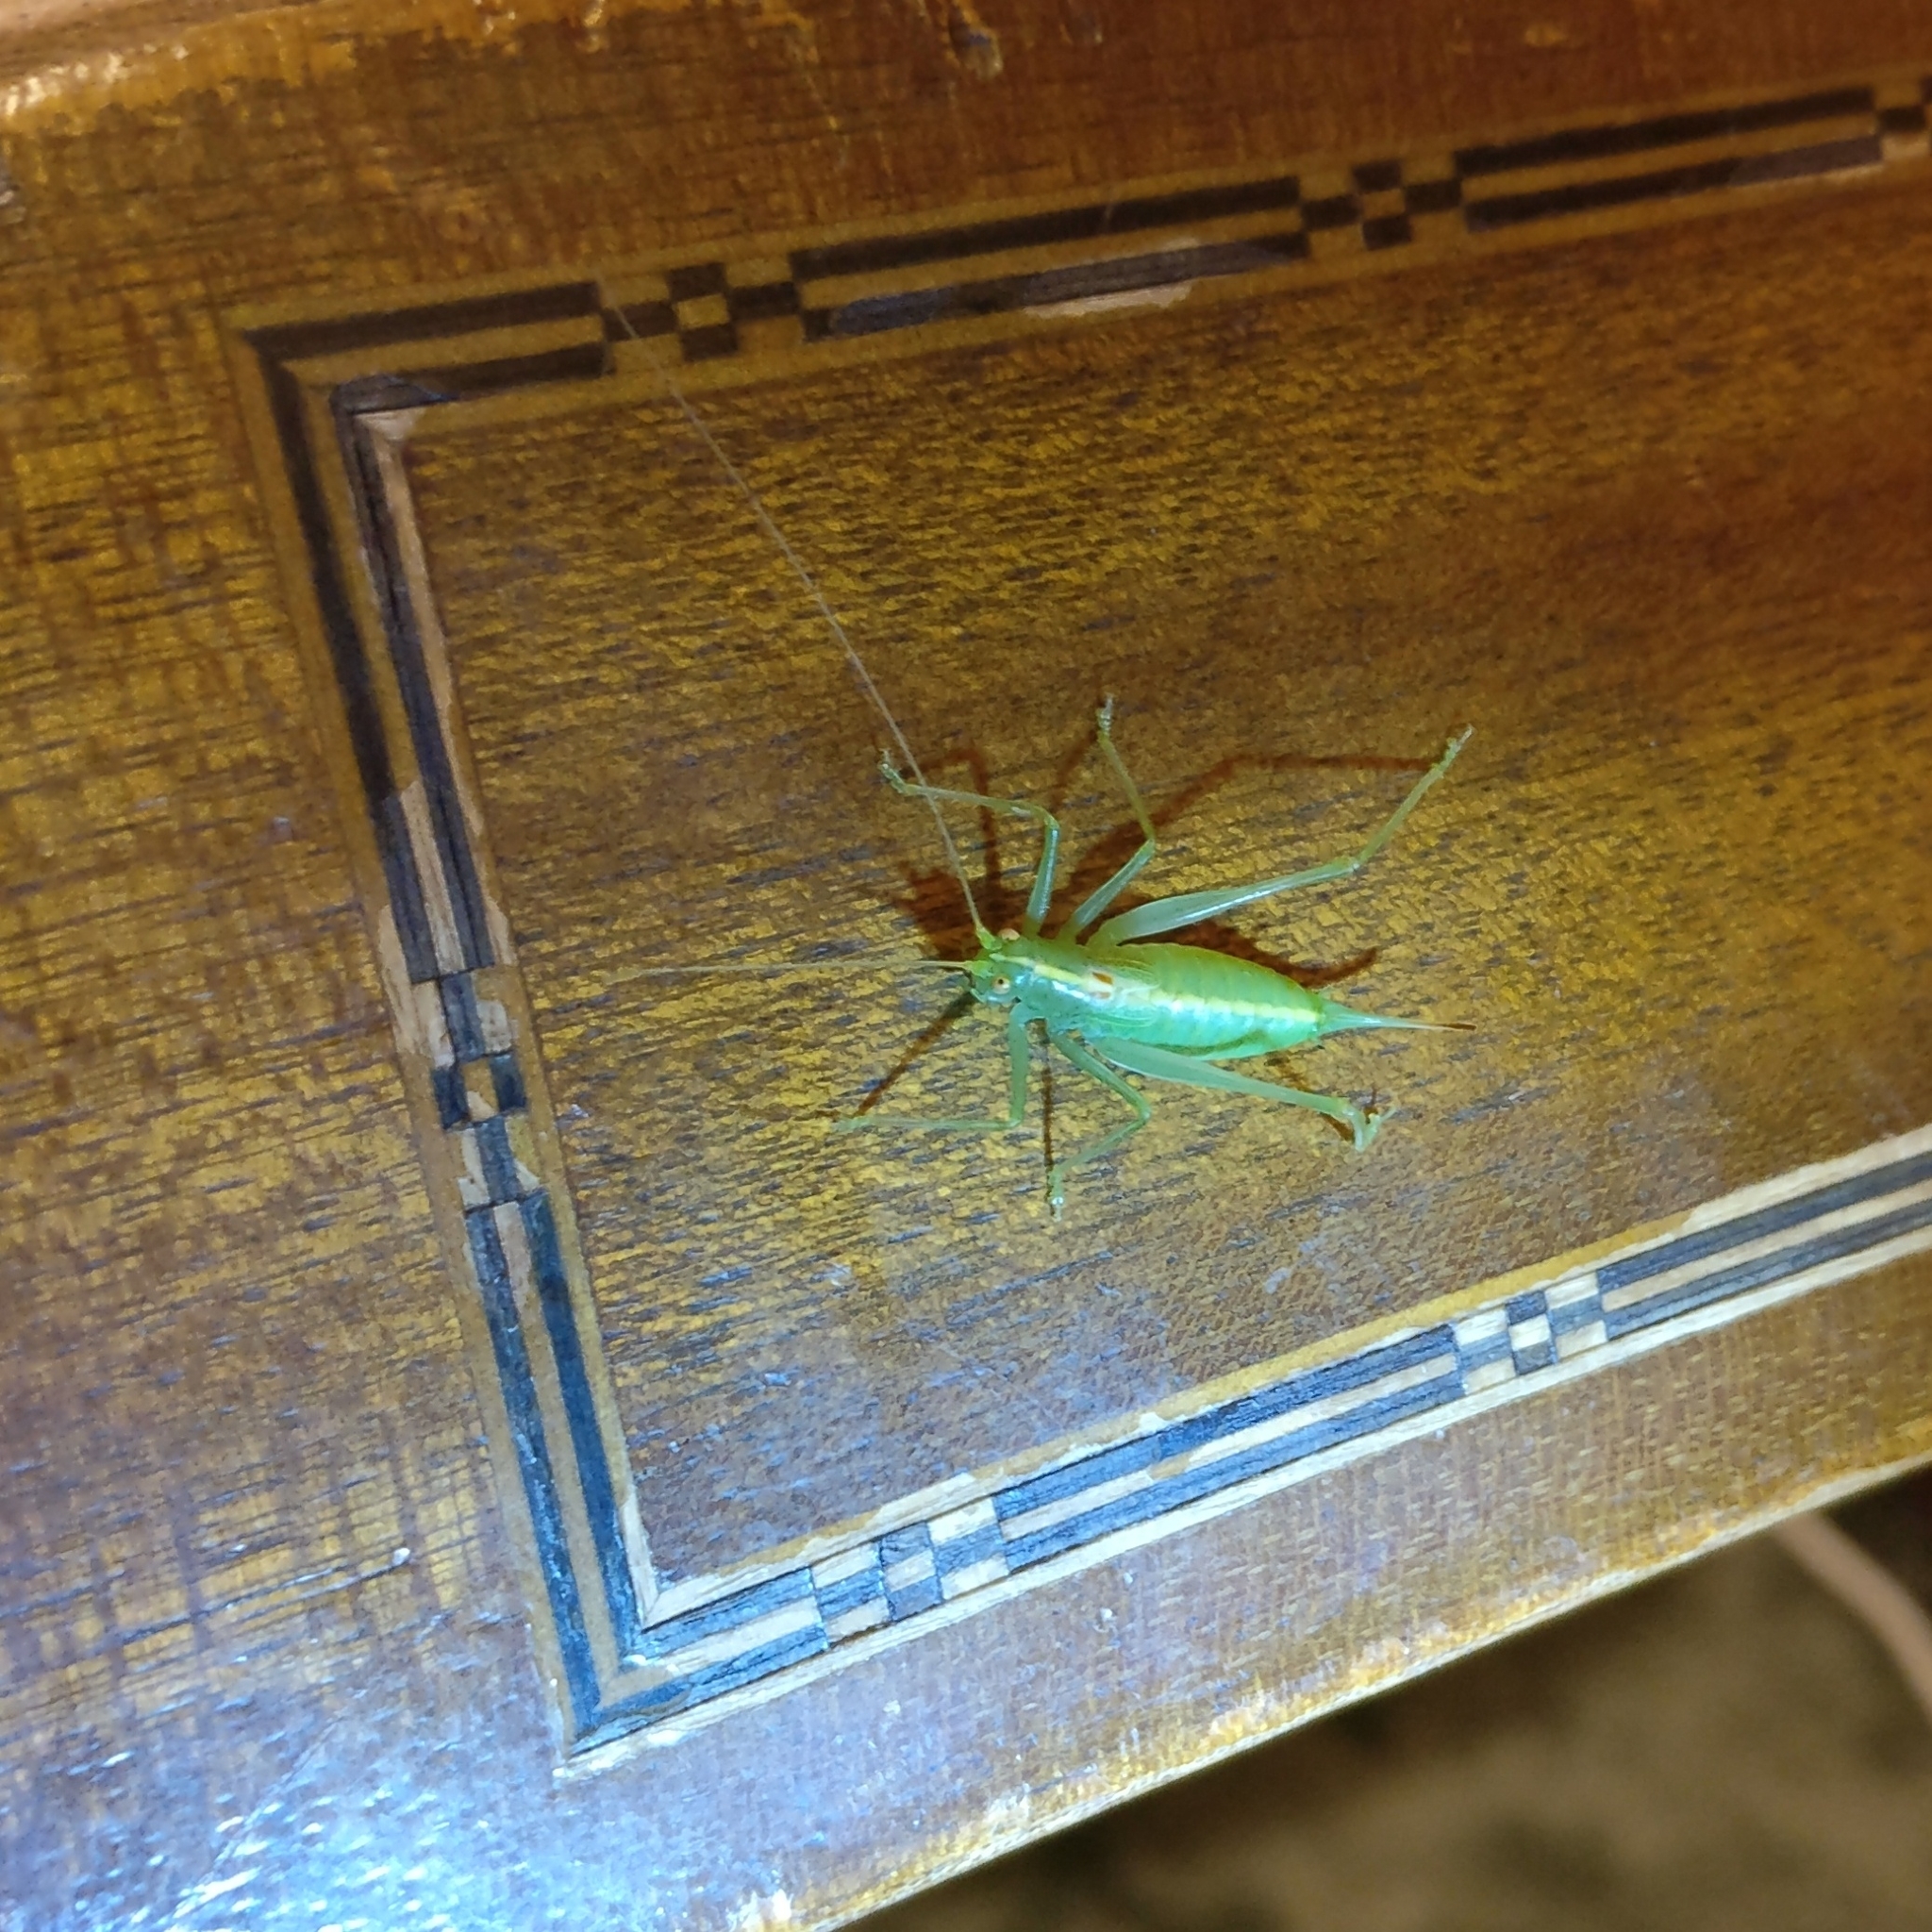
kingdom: Animalia
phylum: Arthropoda
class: Insecta
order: Orthoptera
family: Tettigoniidae
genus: Meconema
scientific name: Meconema meridionale
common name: Southern oak bush-cricket
